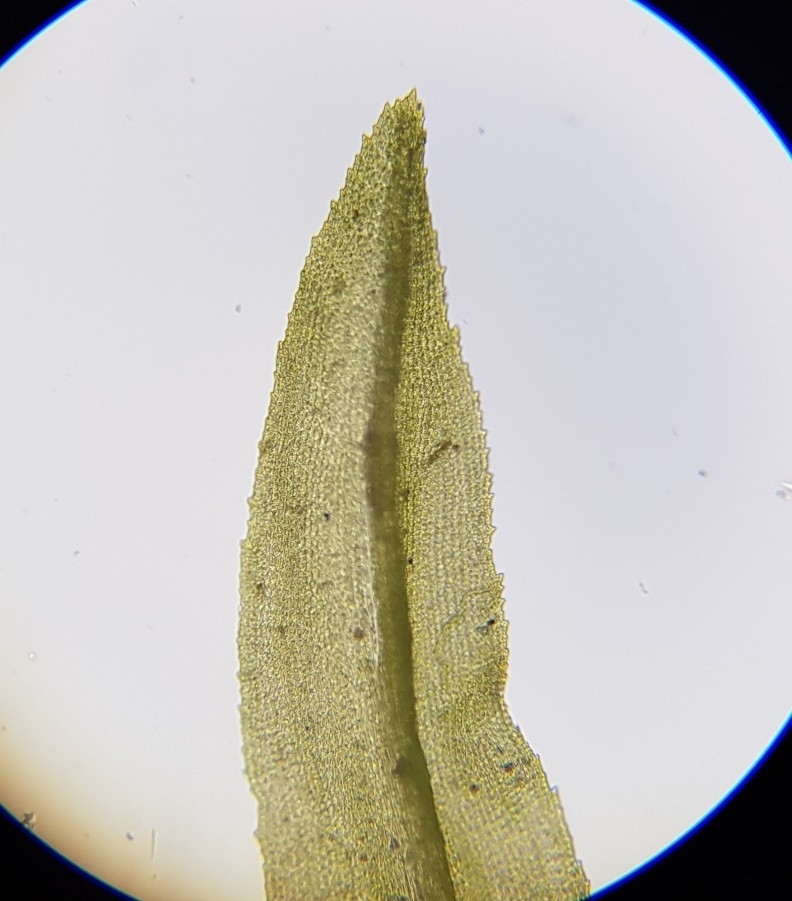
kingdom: Plantae
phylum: Bryophyta
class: Bryopsida
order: Dicranales
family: Aongstroemiaceae
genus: Dichodontium
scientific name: Dichodontium pellucidum
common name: Transparent fork moss
